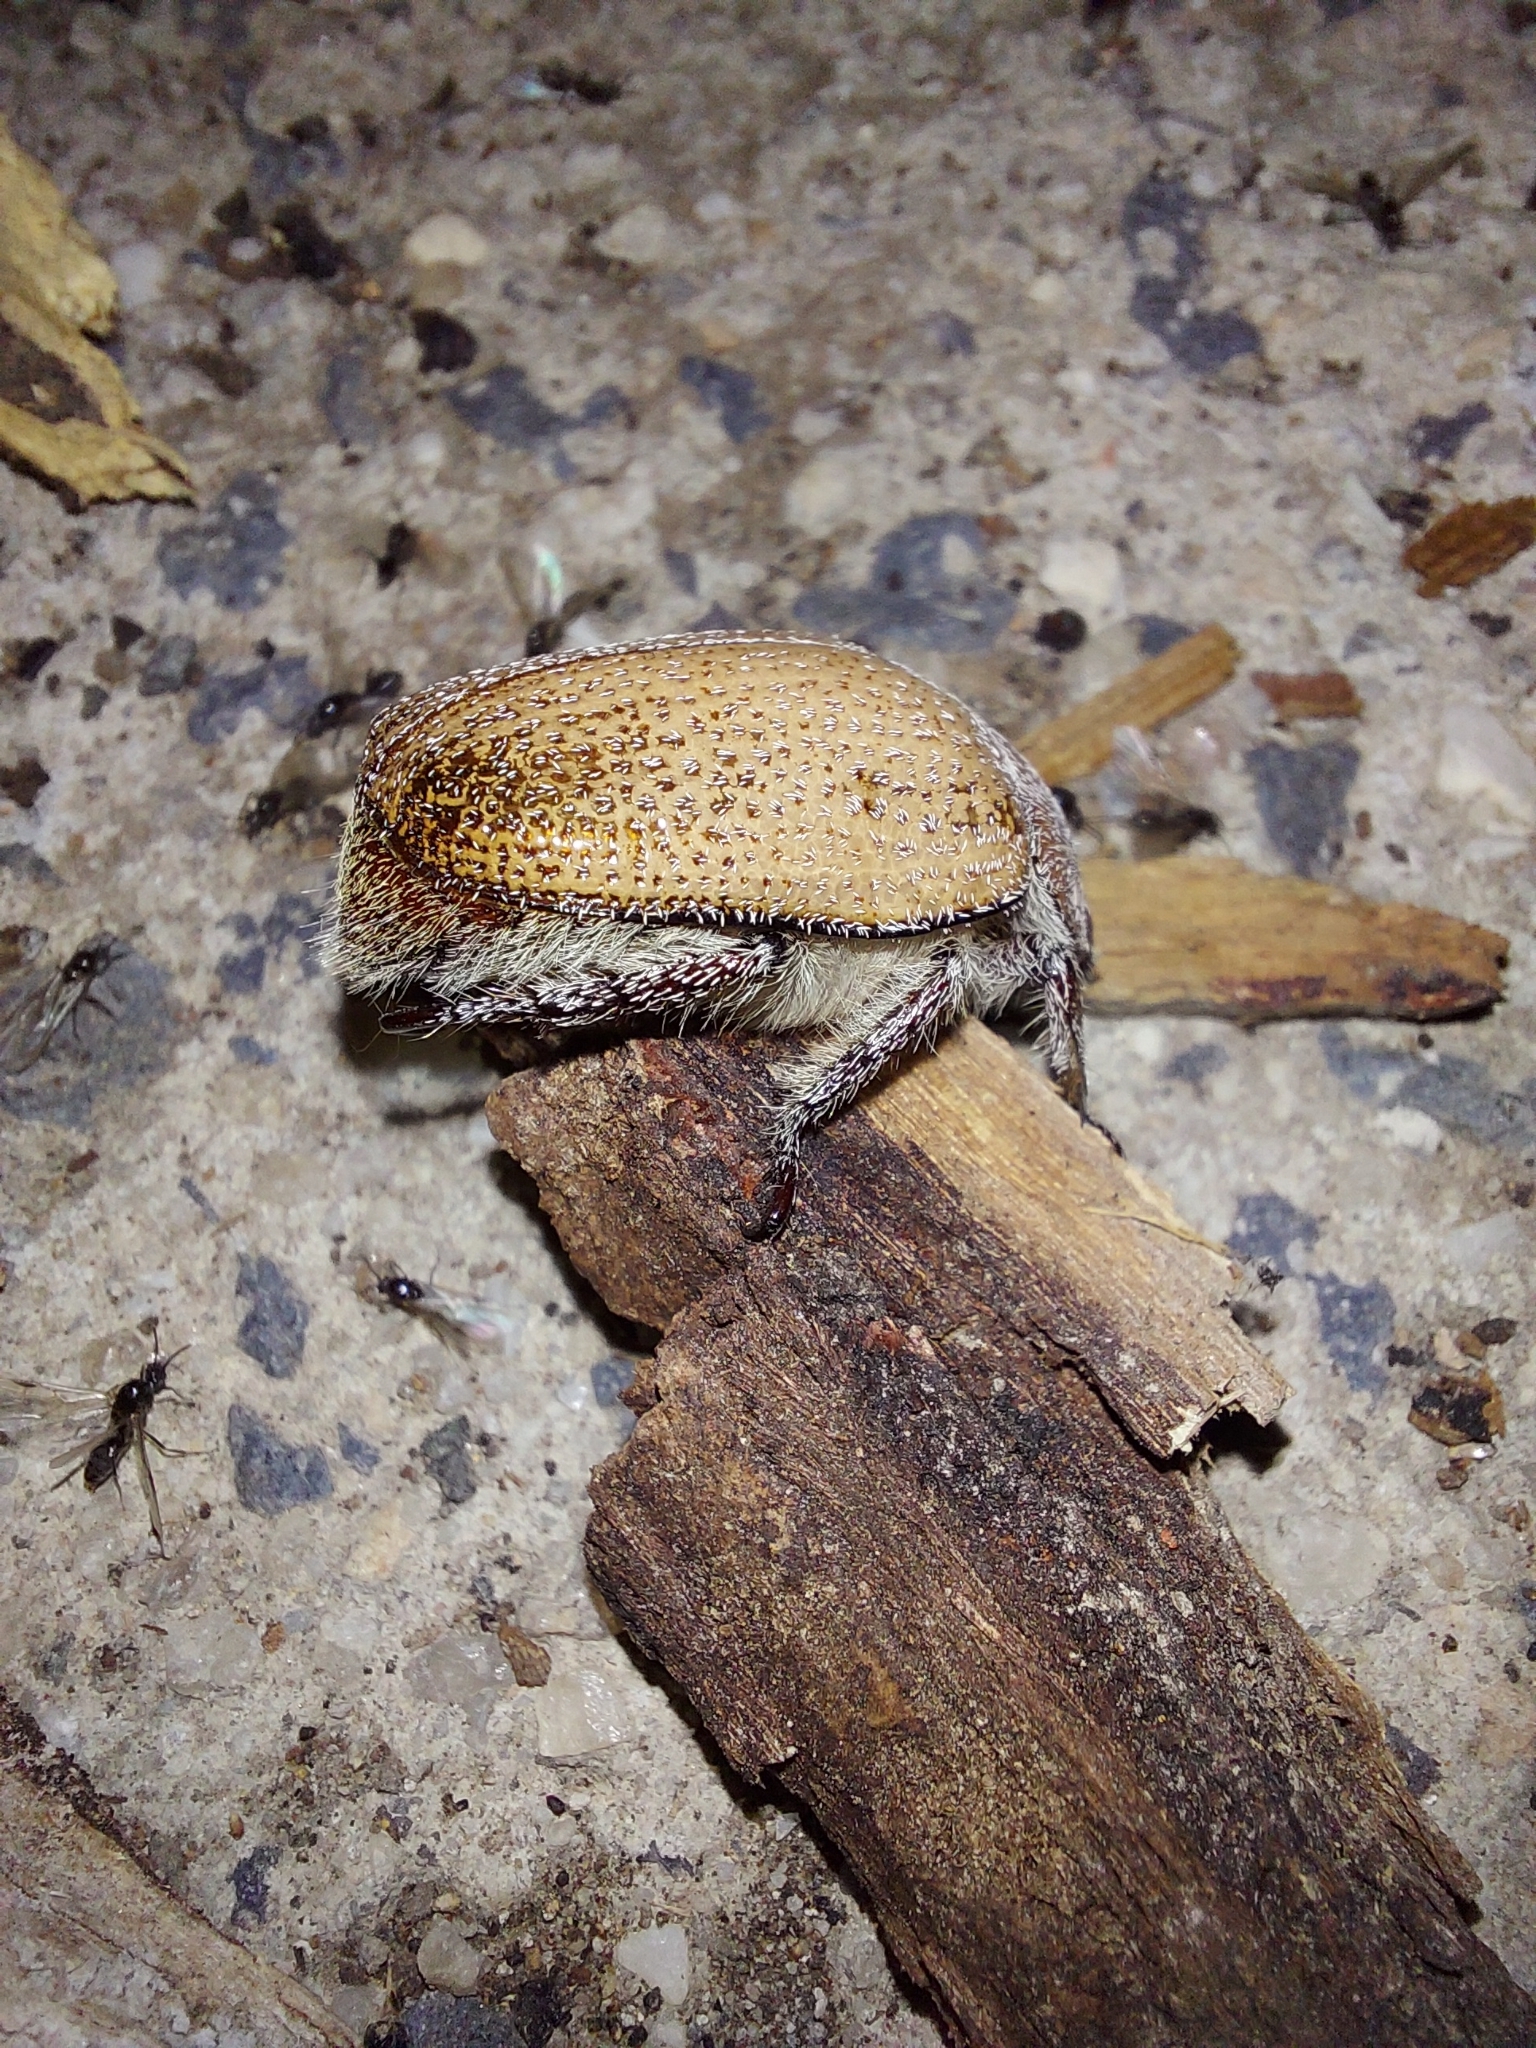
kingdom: Animalia
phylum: Arthropoda
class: Insecta
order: Coleoptera
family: Scarabaeidae
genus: Anoplognathus
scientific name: Anoplognathus velutinus
